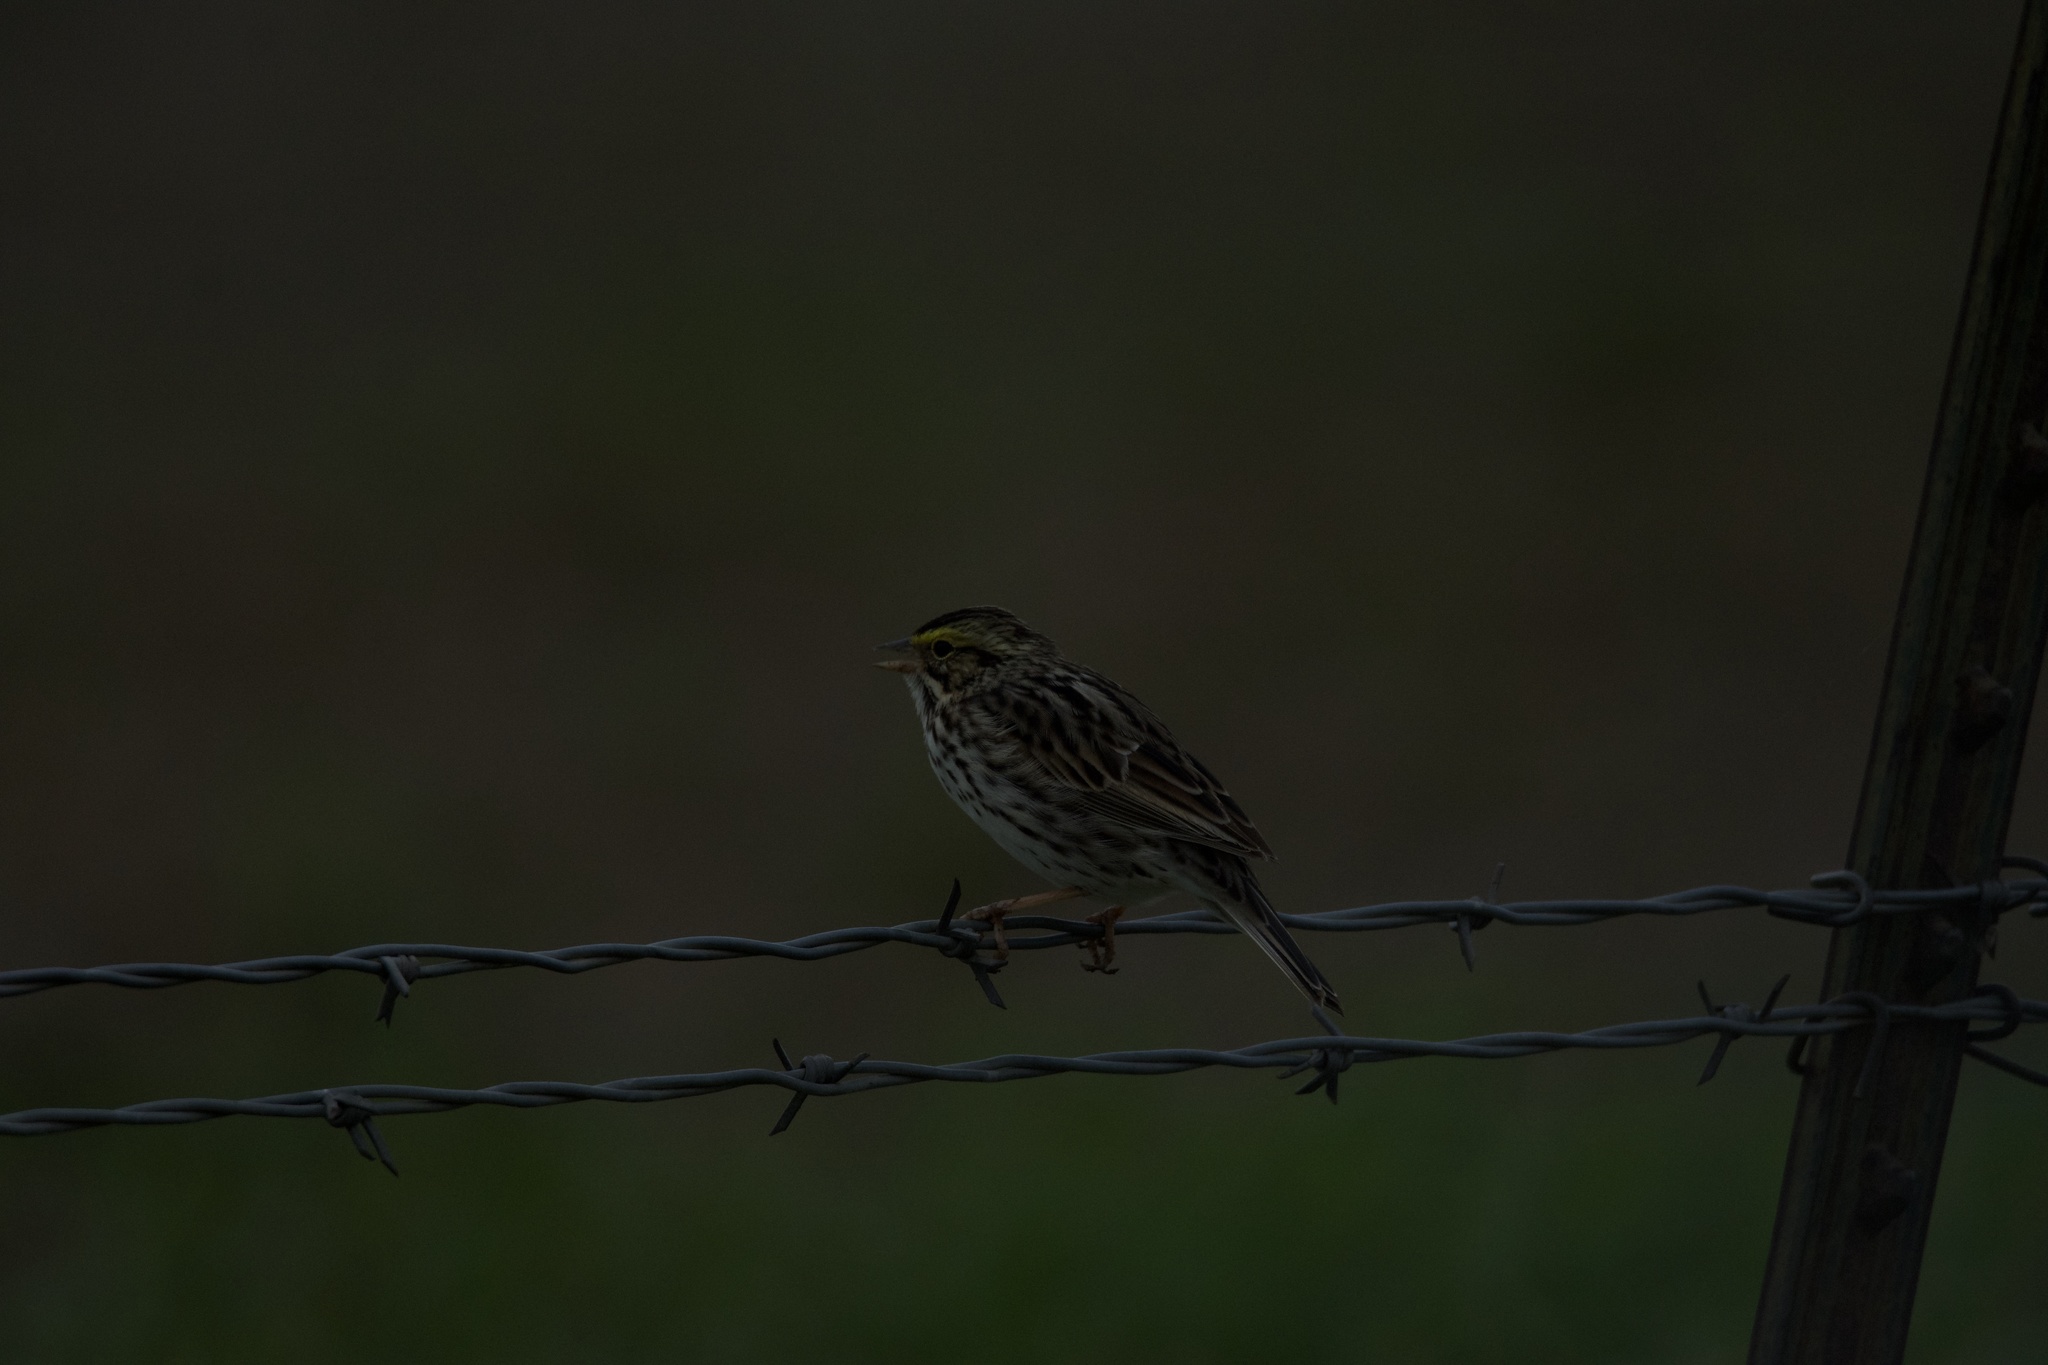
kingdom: Animalia
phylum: Chordata
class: Aves
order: Passeriformes
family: Passerellidae
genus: Passerculus
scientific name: Passerculus sandwichensis
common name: Savannah sparrow
